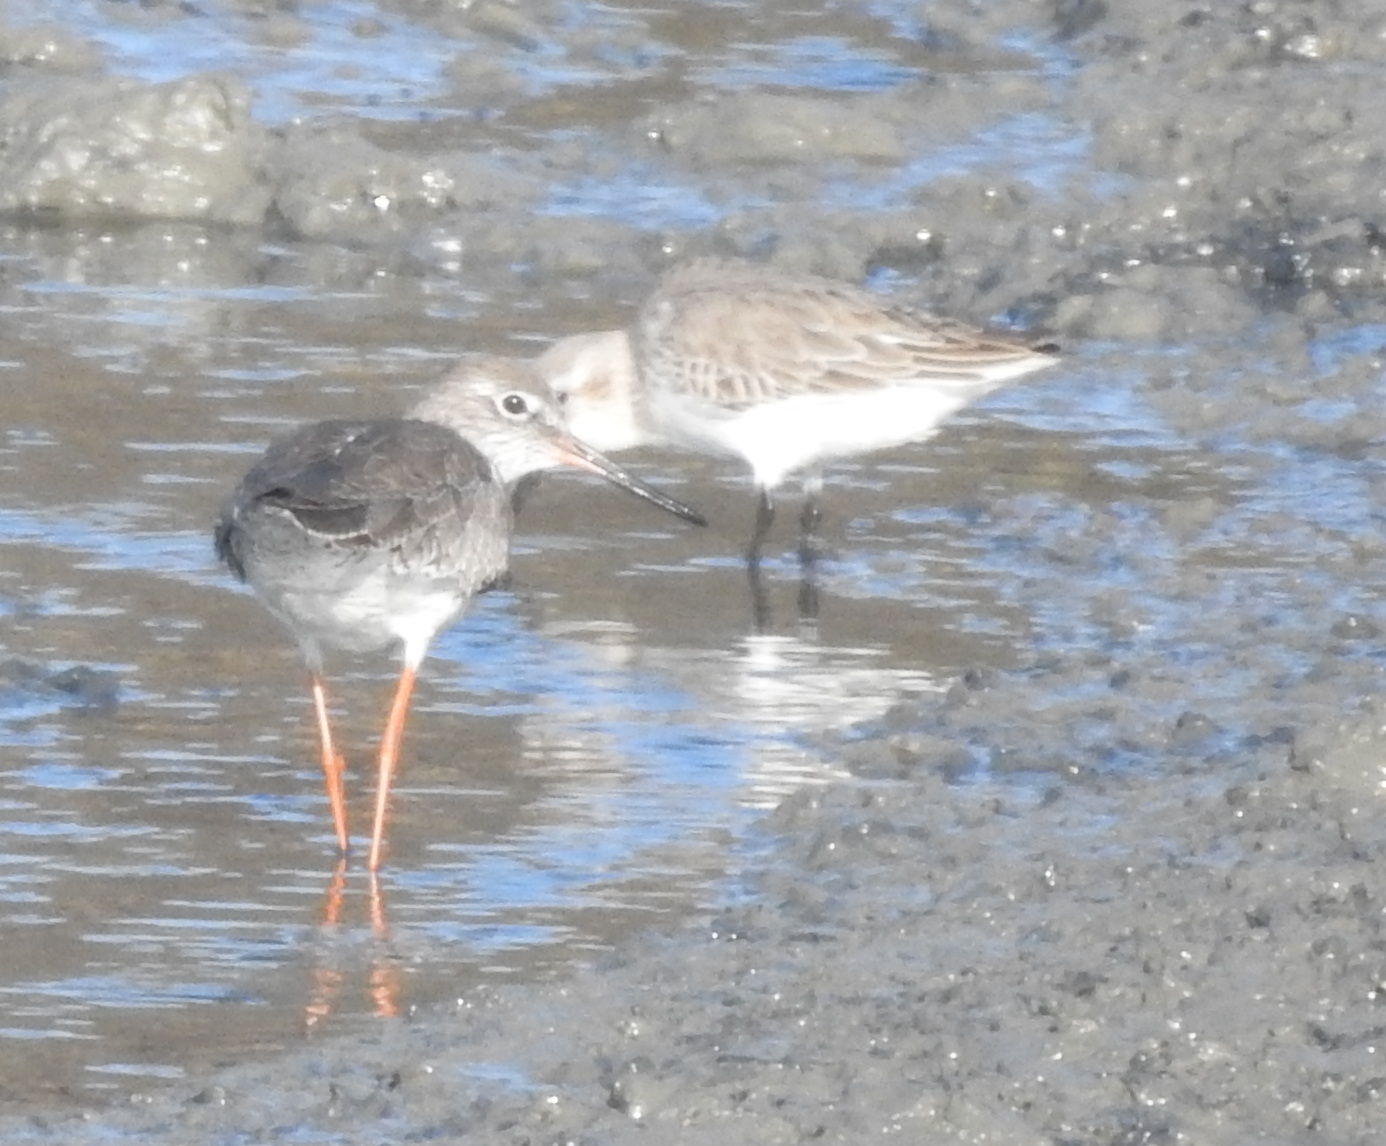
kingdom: Animalia
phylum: Chordata
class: Aves
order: Charadriiformes
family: Scolopacidae
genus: Tringa
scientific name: Tringa totanus
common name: Common redshank
